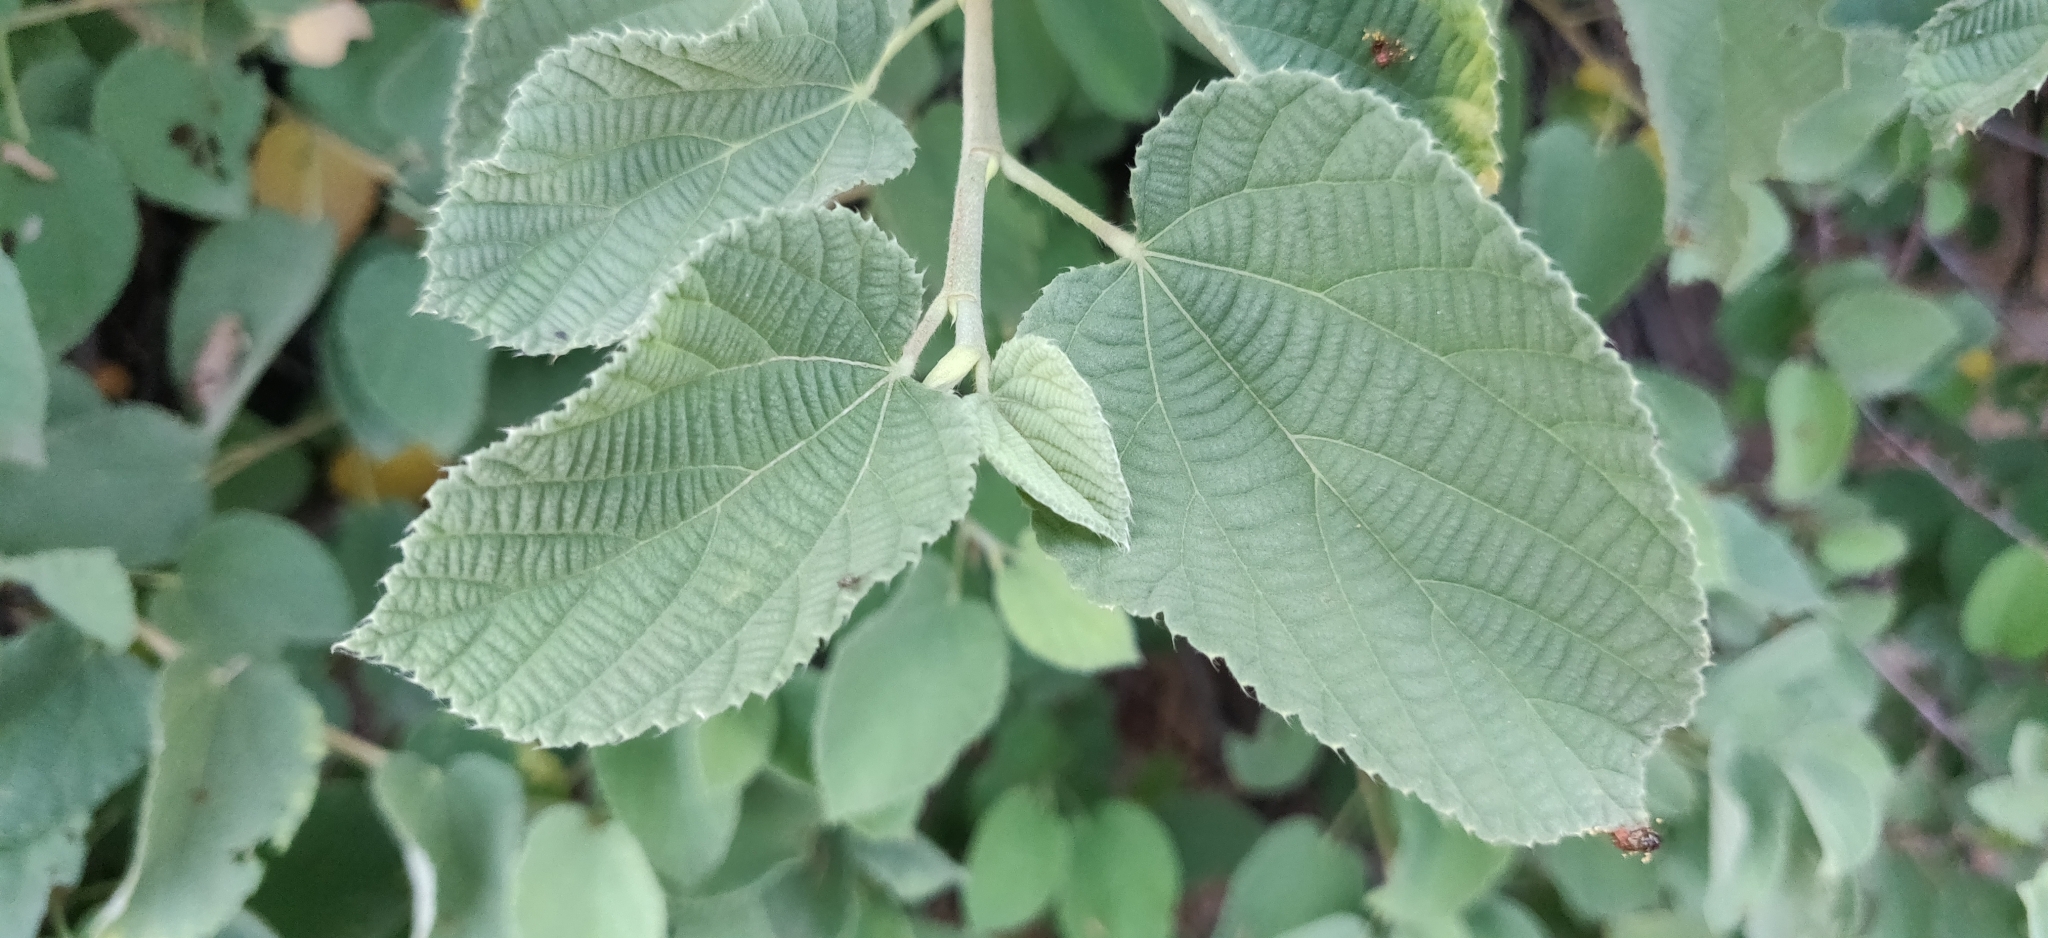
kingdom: Plantae
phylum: Tracheophyta
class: Magnoliopsida
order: Malvales
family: Malvaceae
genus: Grewia
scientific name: Grewia villosa
